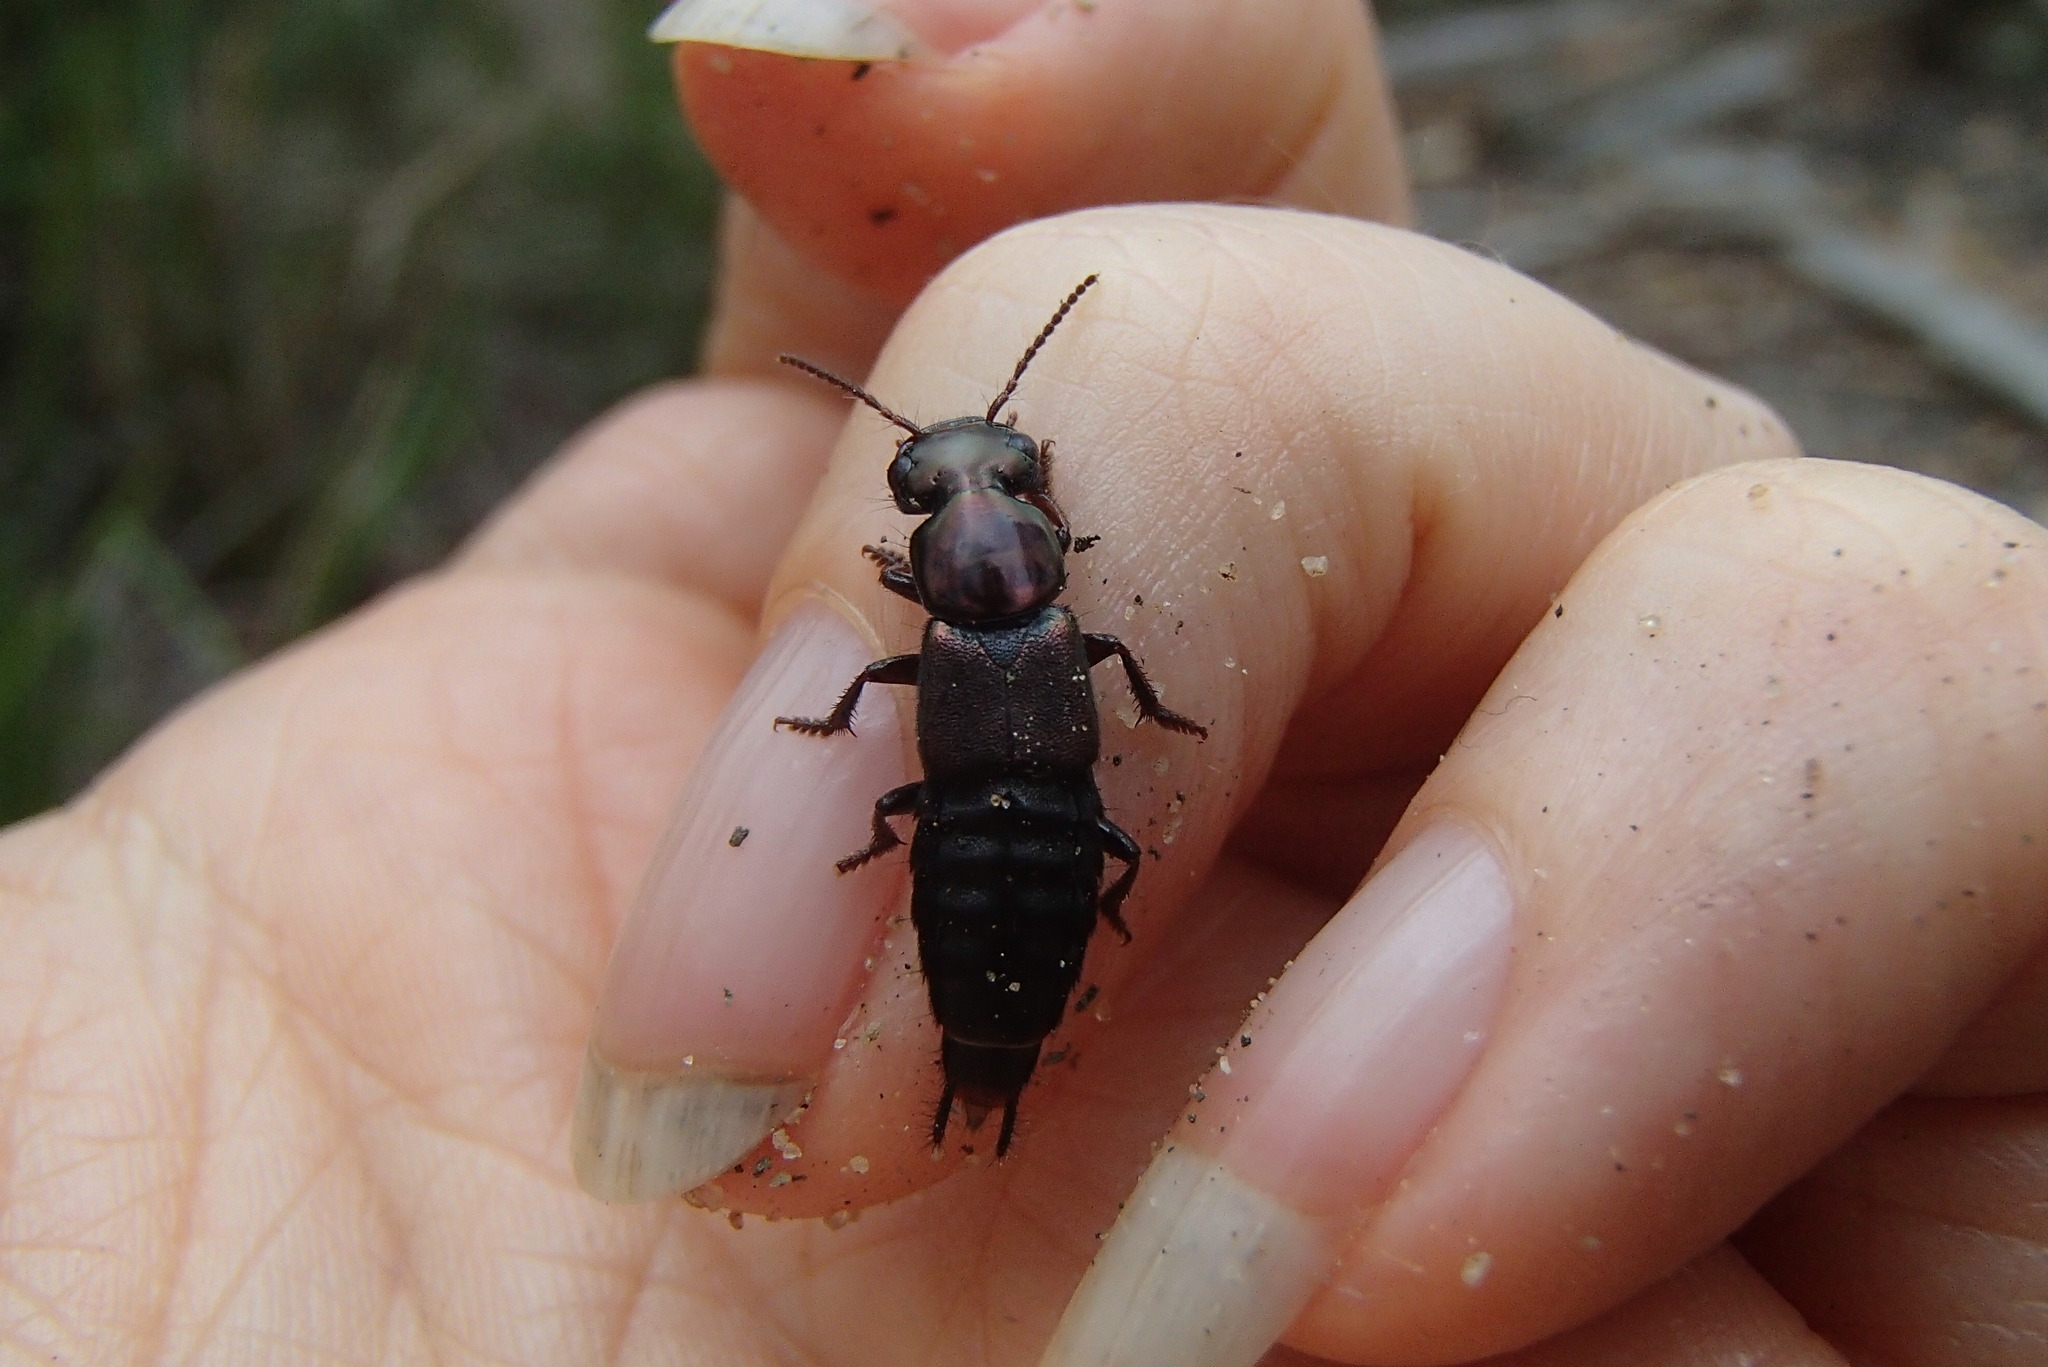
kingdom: Animalia
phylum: Arthropoda
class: Insecta
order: Coleoptera
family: Staphylinidae
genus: Antimerus
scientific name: Antimerus punctipennis
